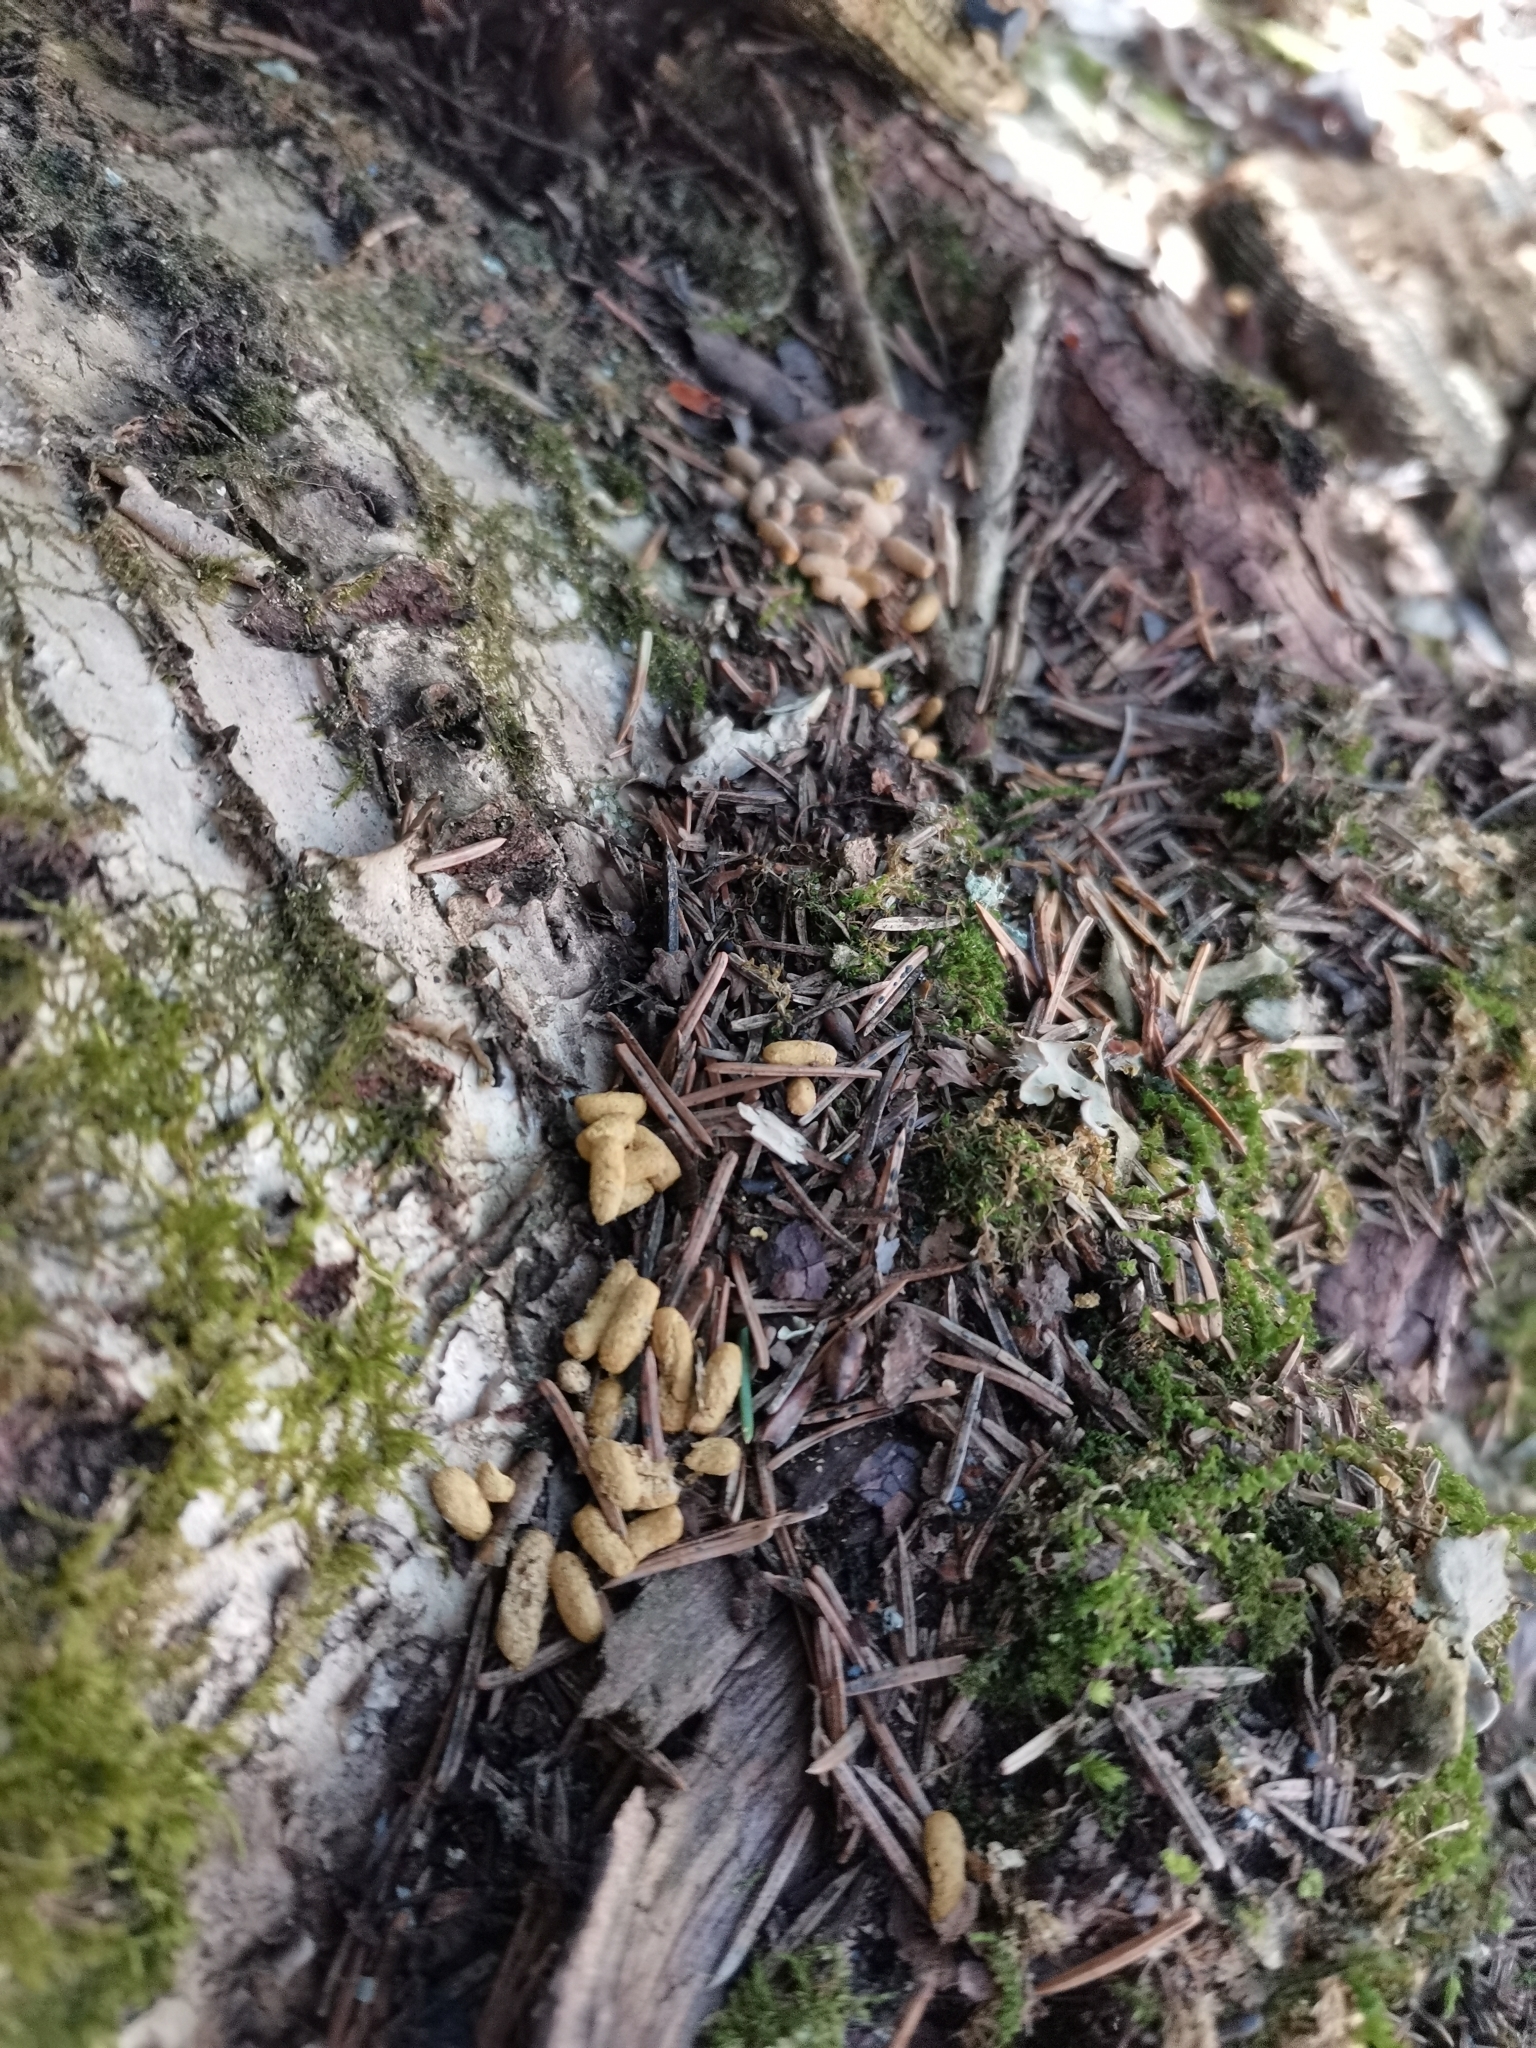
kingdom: Animalia
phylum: Chordata
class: Mammalia
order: Rodentia
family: Sciuridae
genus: Pteromys
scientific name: Pteromys volans
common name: Siberian flying squirrel
